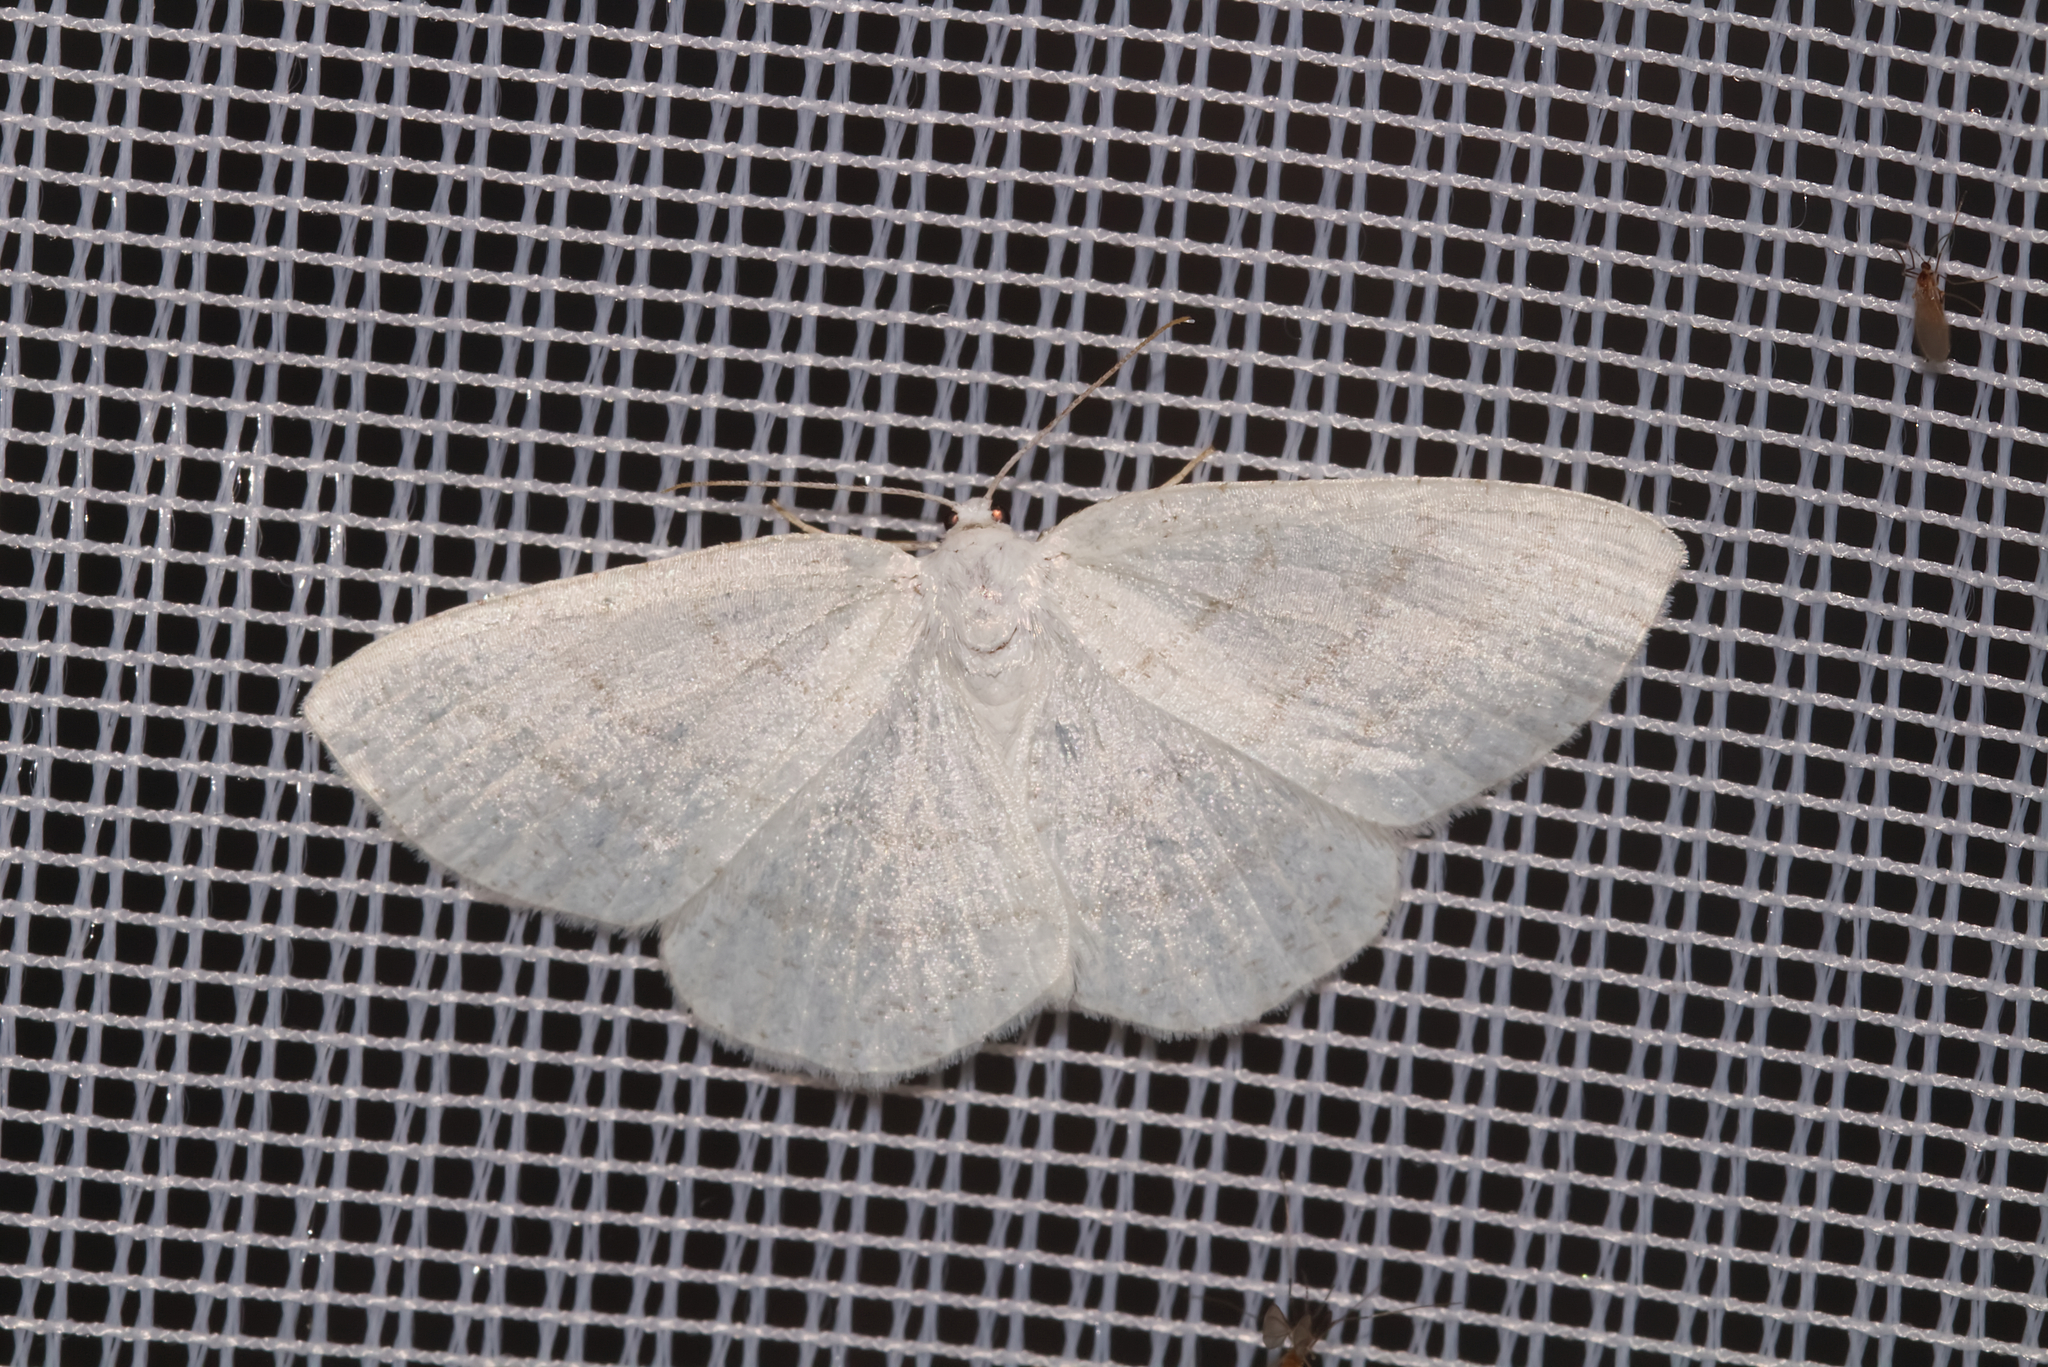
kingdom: Animalia
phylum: Arthropoda
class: Insecta
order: Lepidoptera
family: Geometridae
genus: Cabera
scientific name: Cabera pusaria
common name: Common white wave
